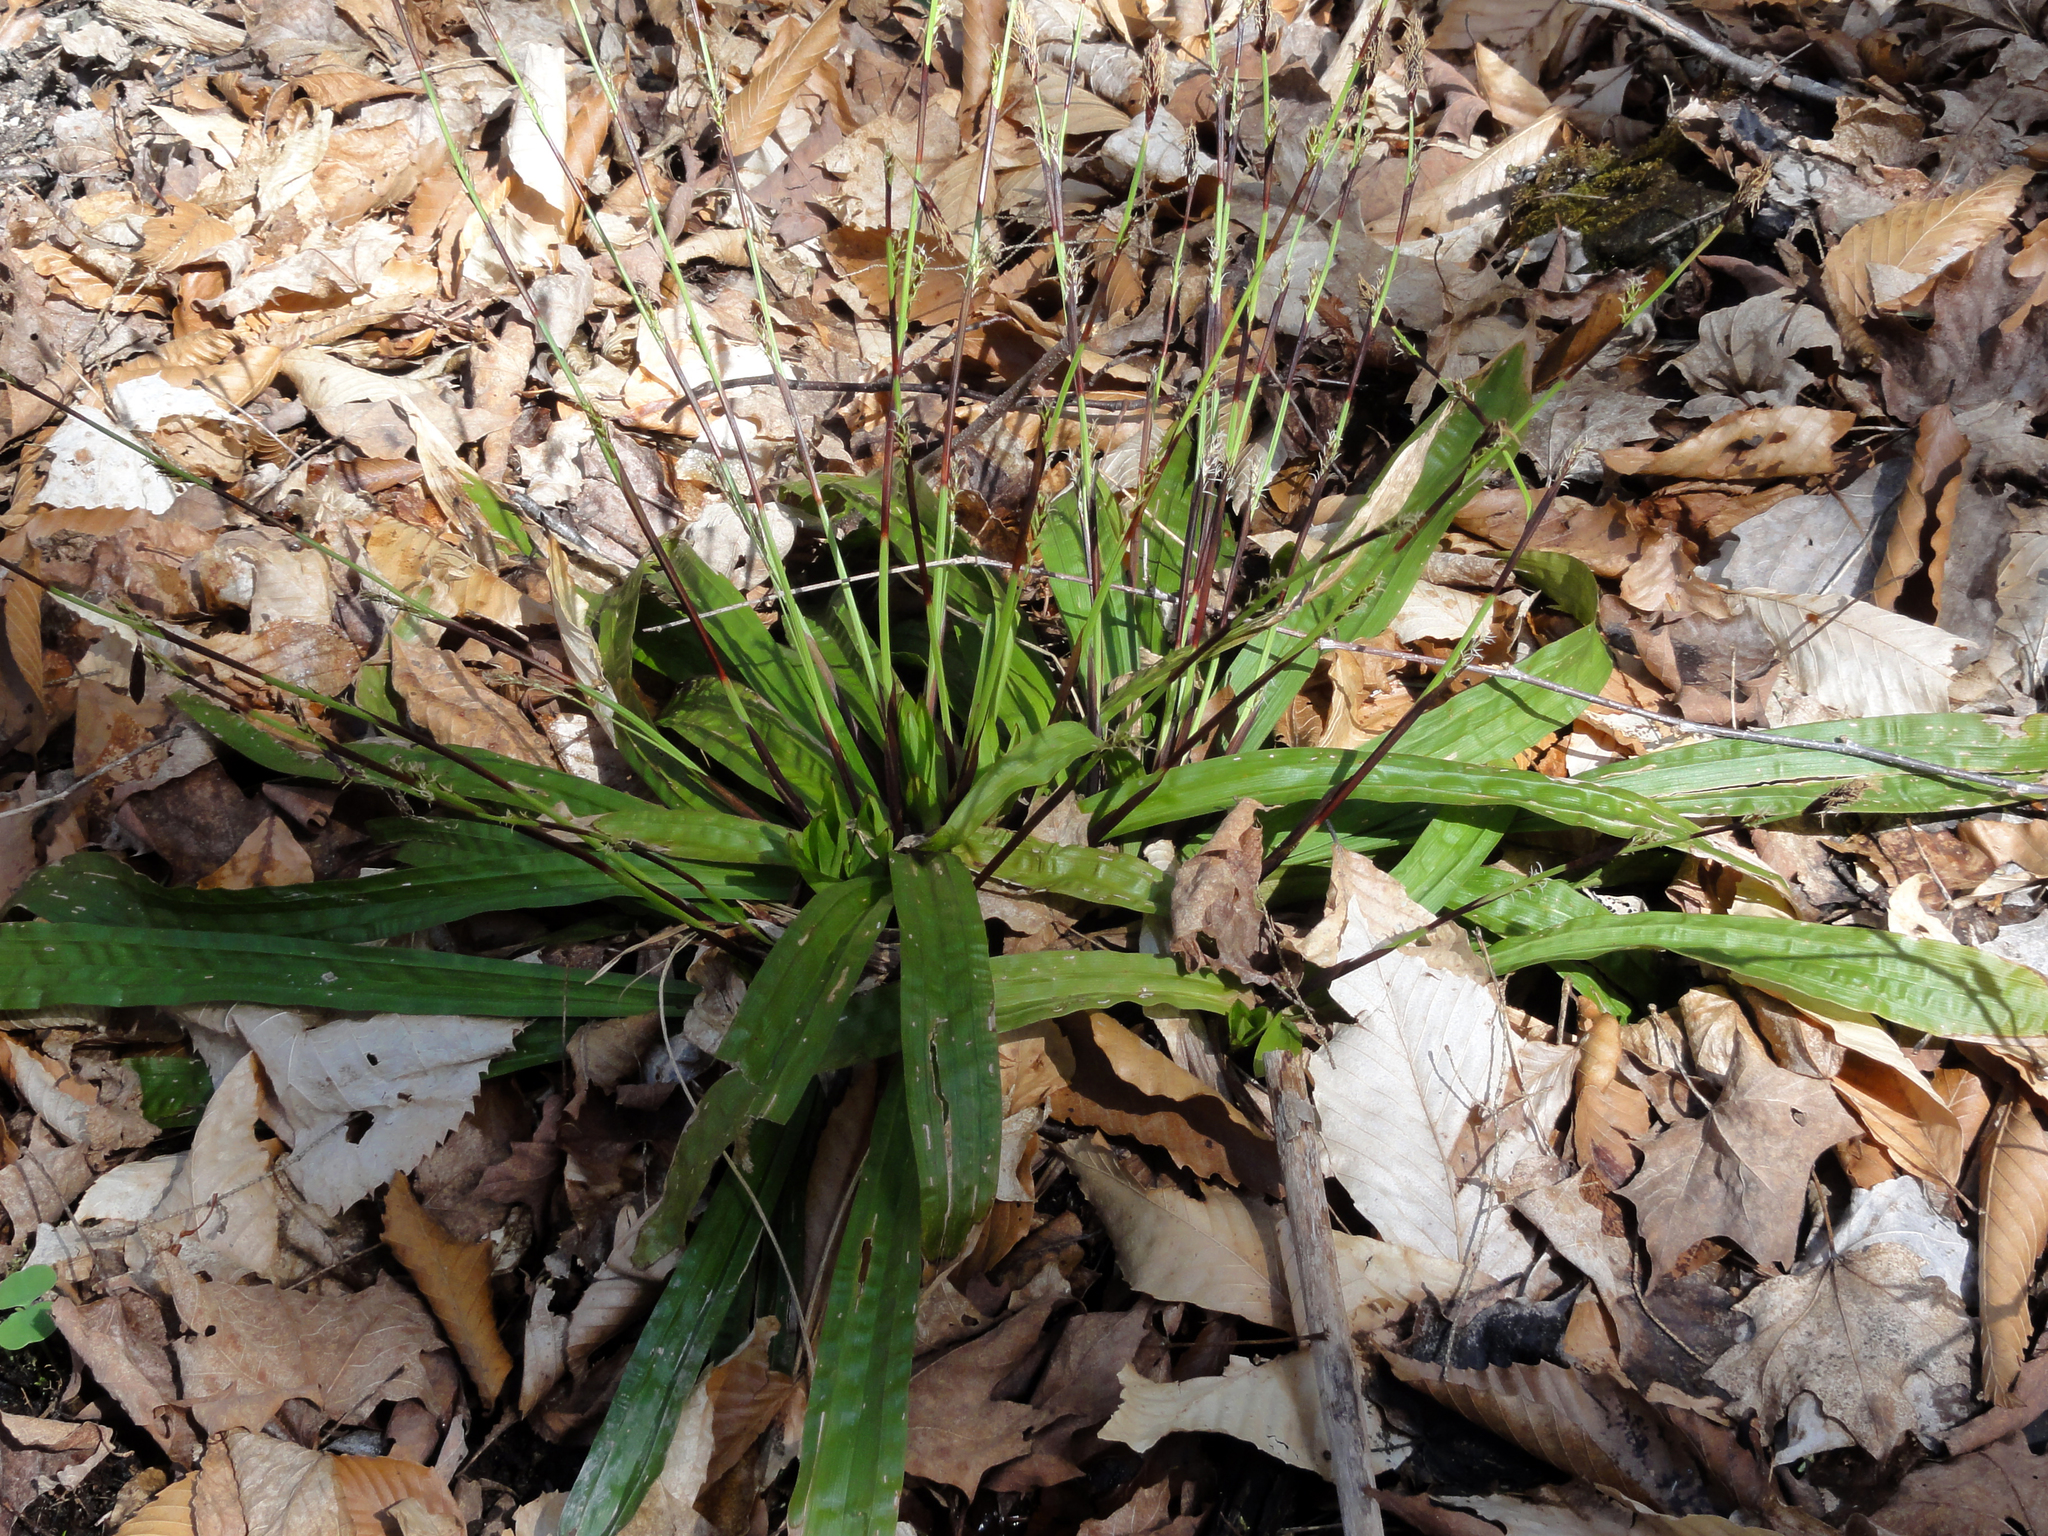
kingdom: Plantae
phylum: Tracheophyta
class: Liliopsida
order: Poales
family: Cyperaceae
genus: Carex
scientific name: Carex plantaginea
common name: Plantain-leaved sedge
